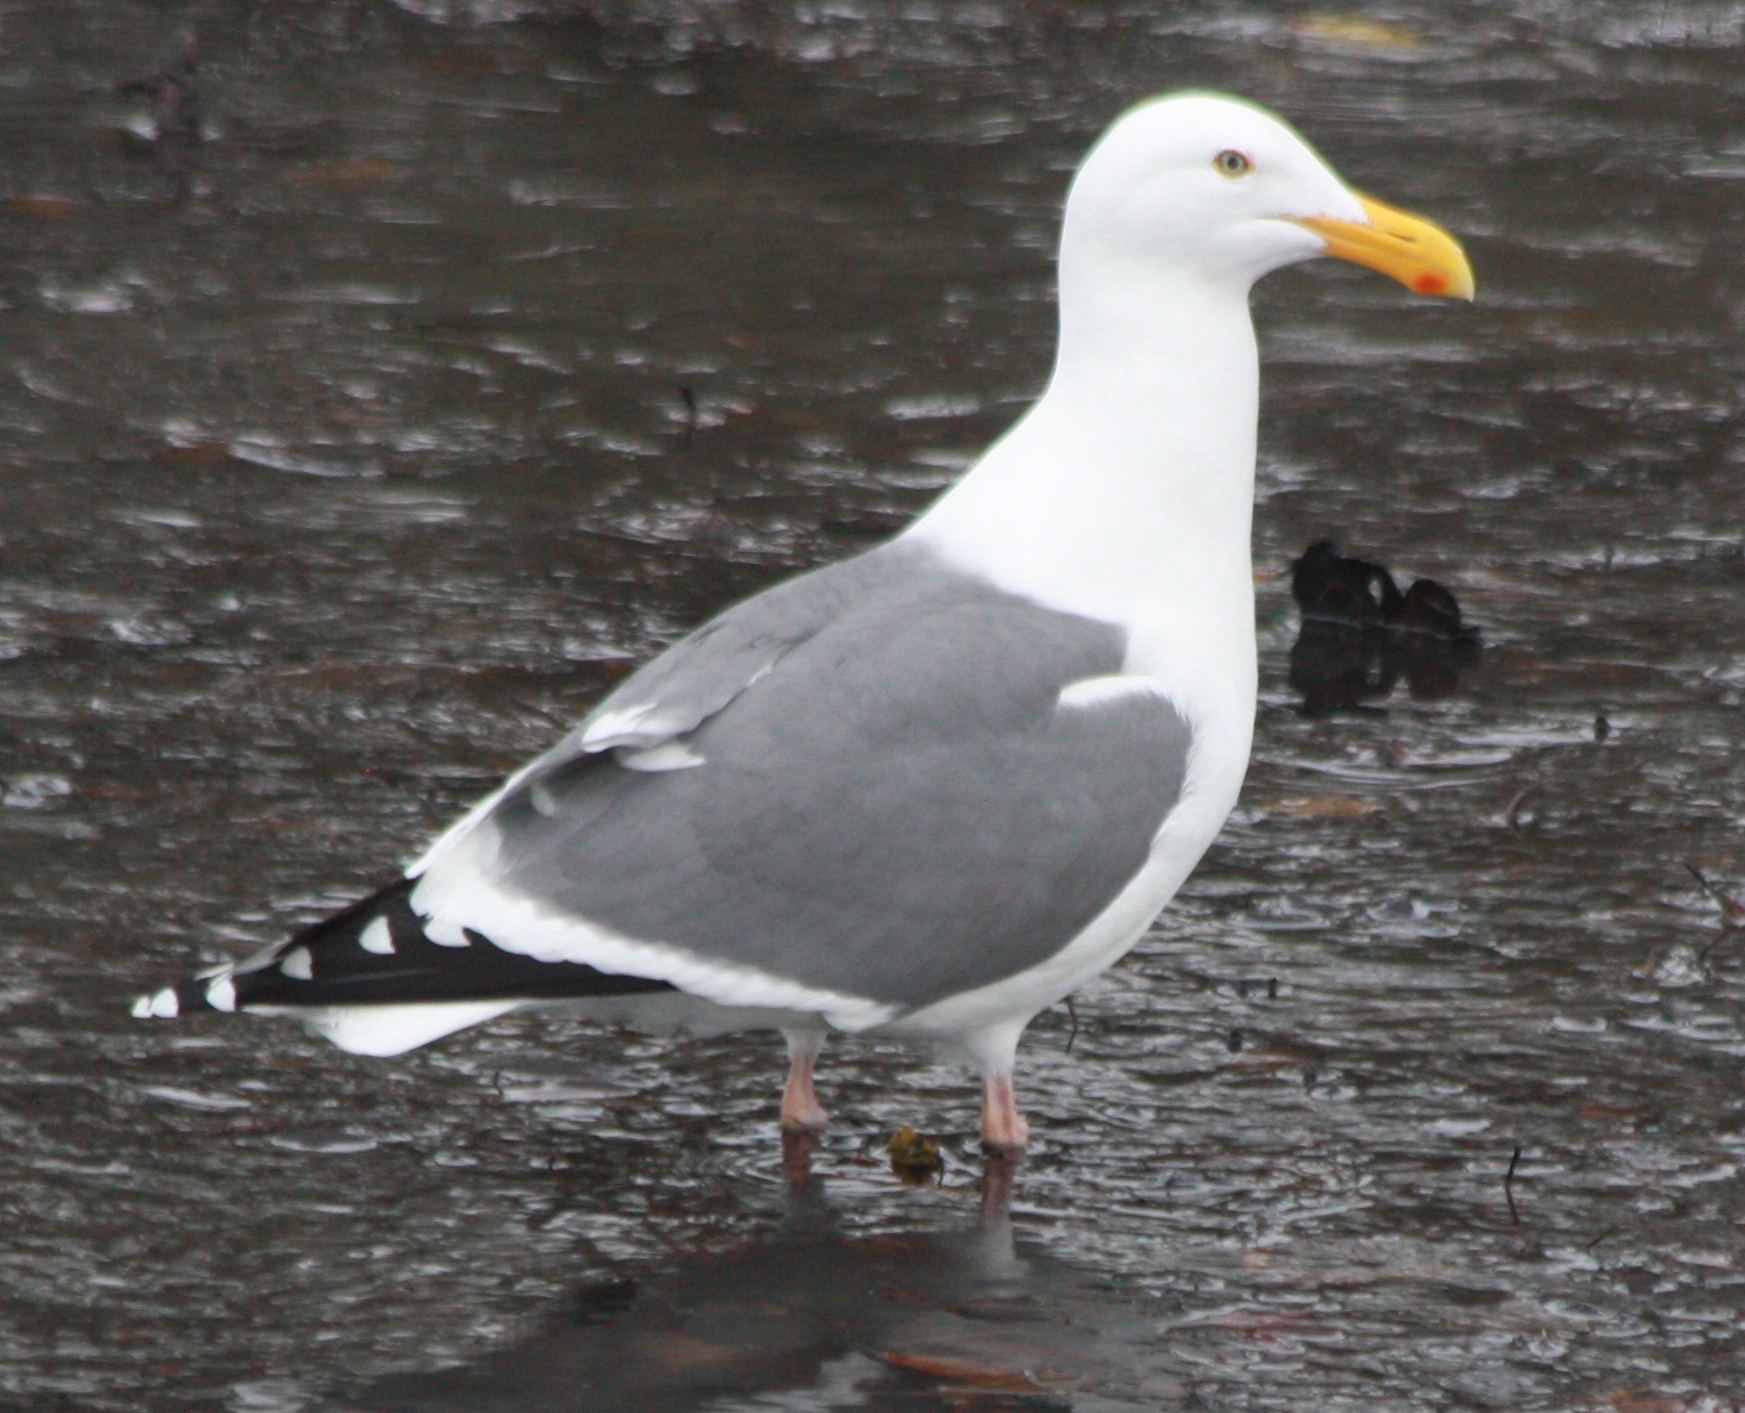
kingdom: Animalia
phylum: Chordata
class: Aves
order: Charadriiformes
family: Laridae
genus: Larus
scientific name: Larus occidentalis
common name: Western gull
